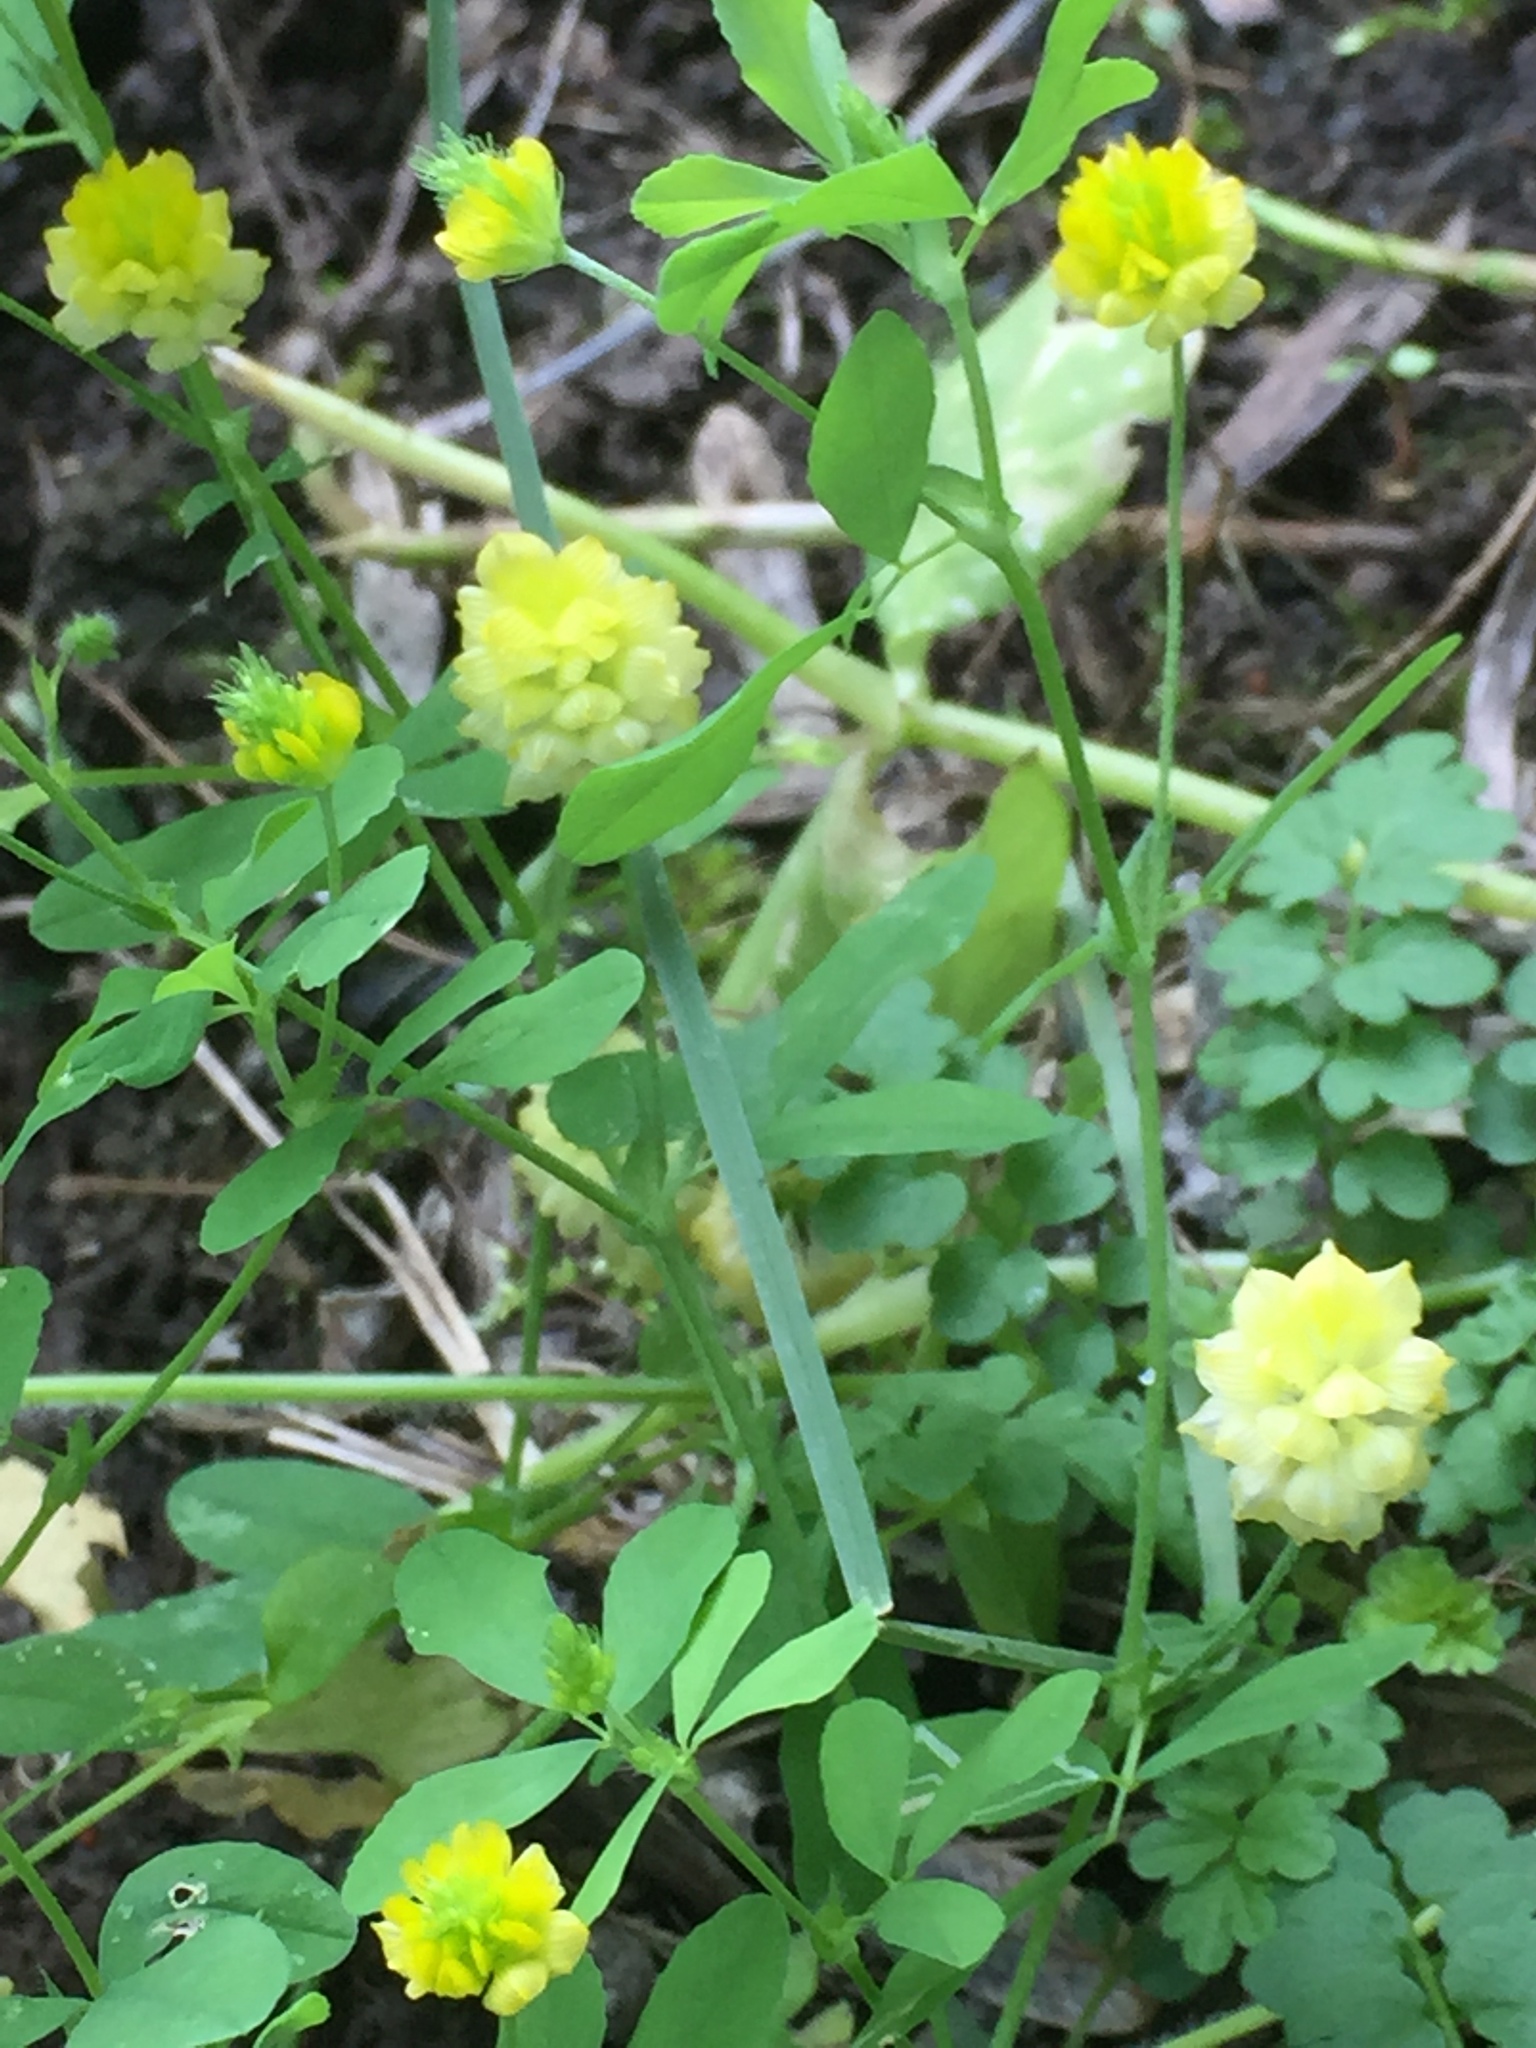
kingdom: Plantae
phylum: Tracheophyta
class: Magnoliopsida
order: Fabales
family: Fabaceae
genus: Trifolium
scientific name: Trifolium campestre
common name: Field clover
